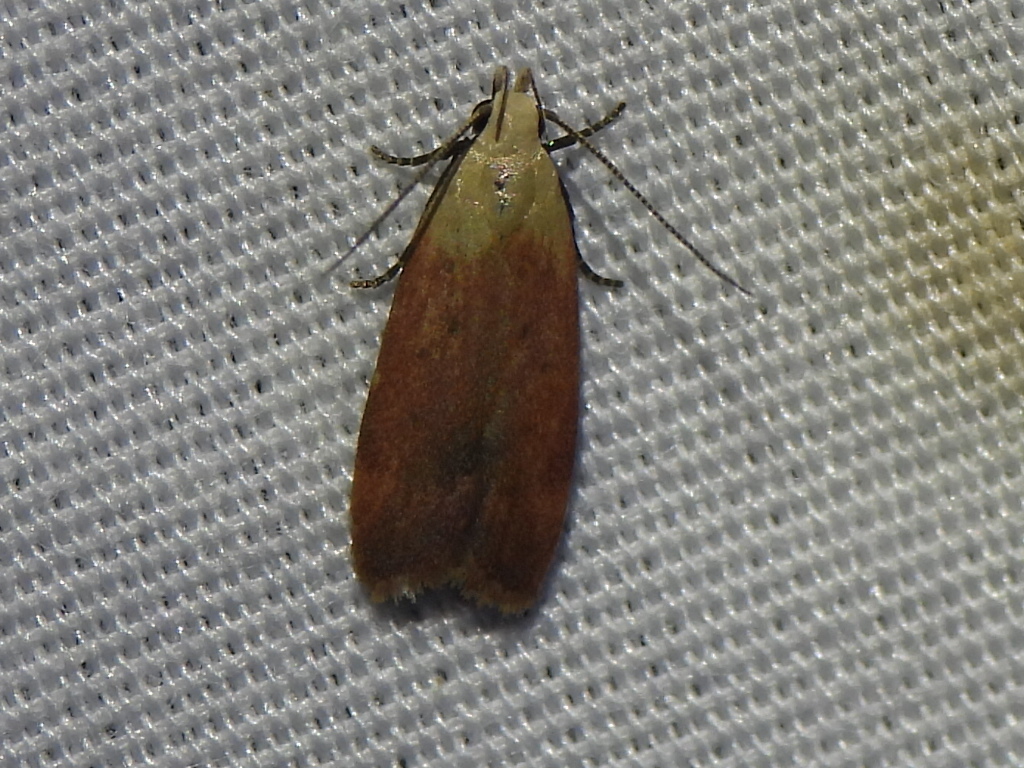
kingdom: Animalia
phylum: Arthropoda
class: Insecta
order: Lepidoptera
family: Gelechiidae
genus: Anacampsis
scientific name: Anacampsis fullonella
